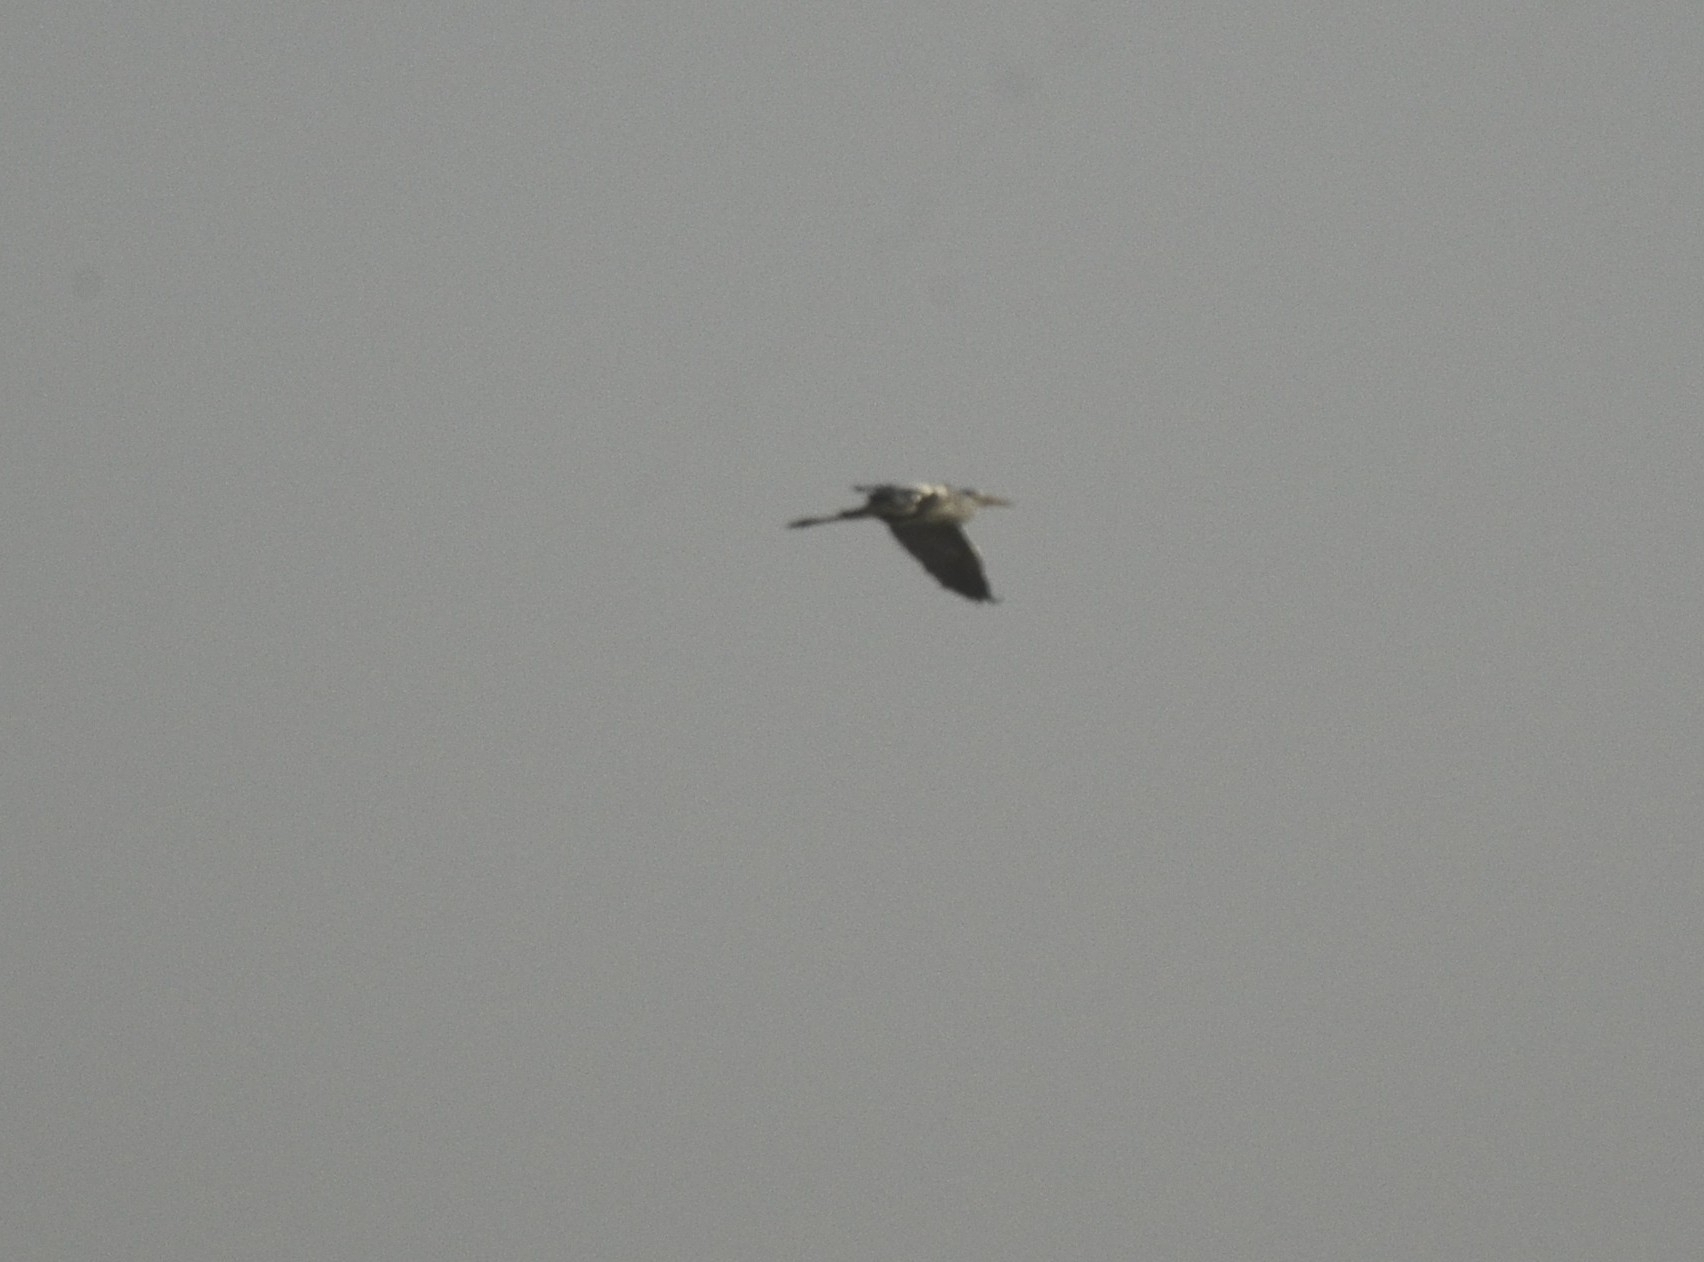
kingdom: Animalia
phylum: Chordata
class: Aves
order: Pelecaniformes
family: Ardeidae
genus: Ardea
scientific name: Ardea cinerea
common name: Grey heron
